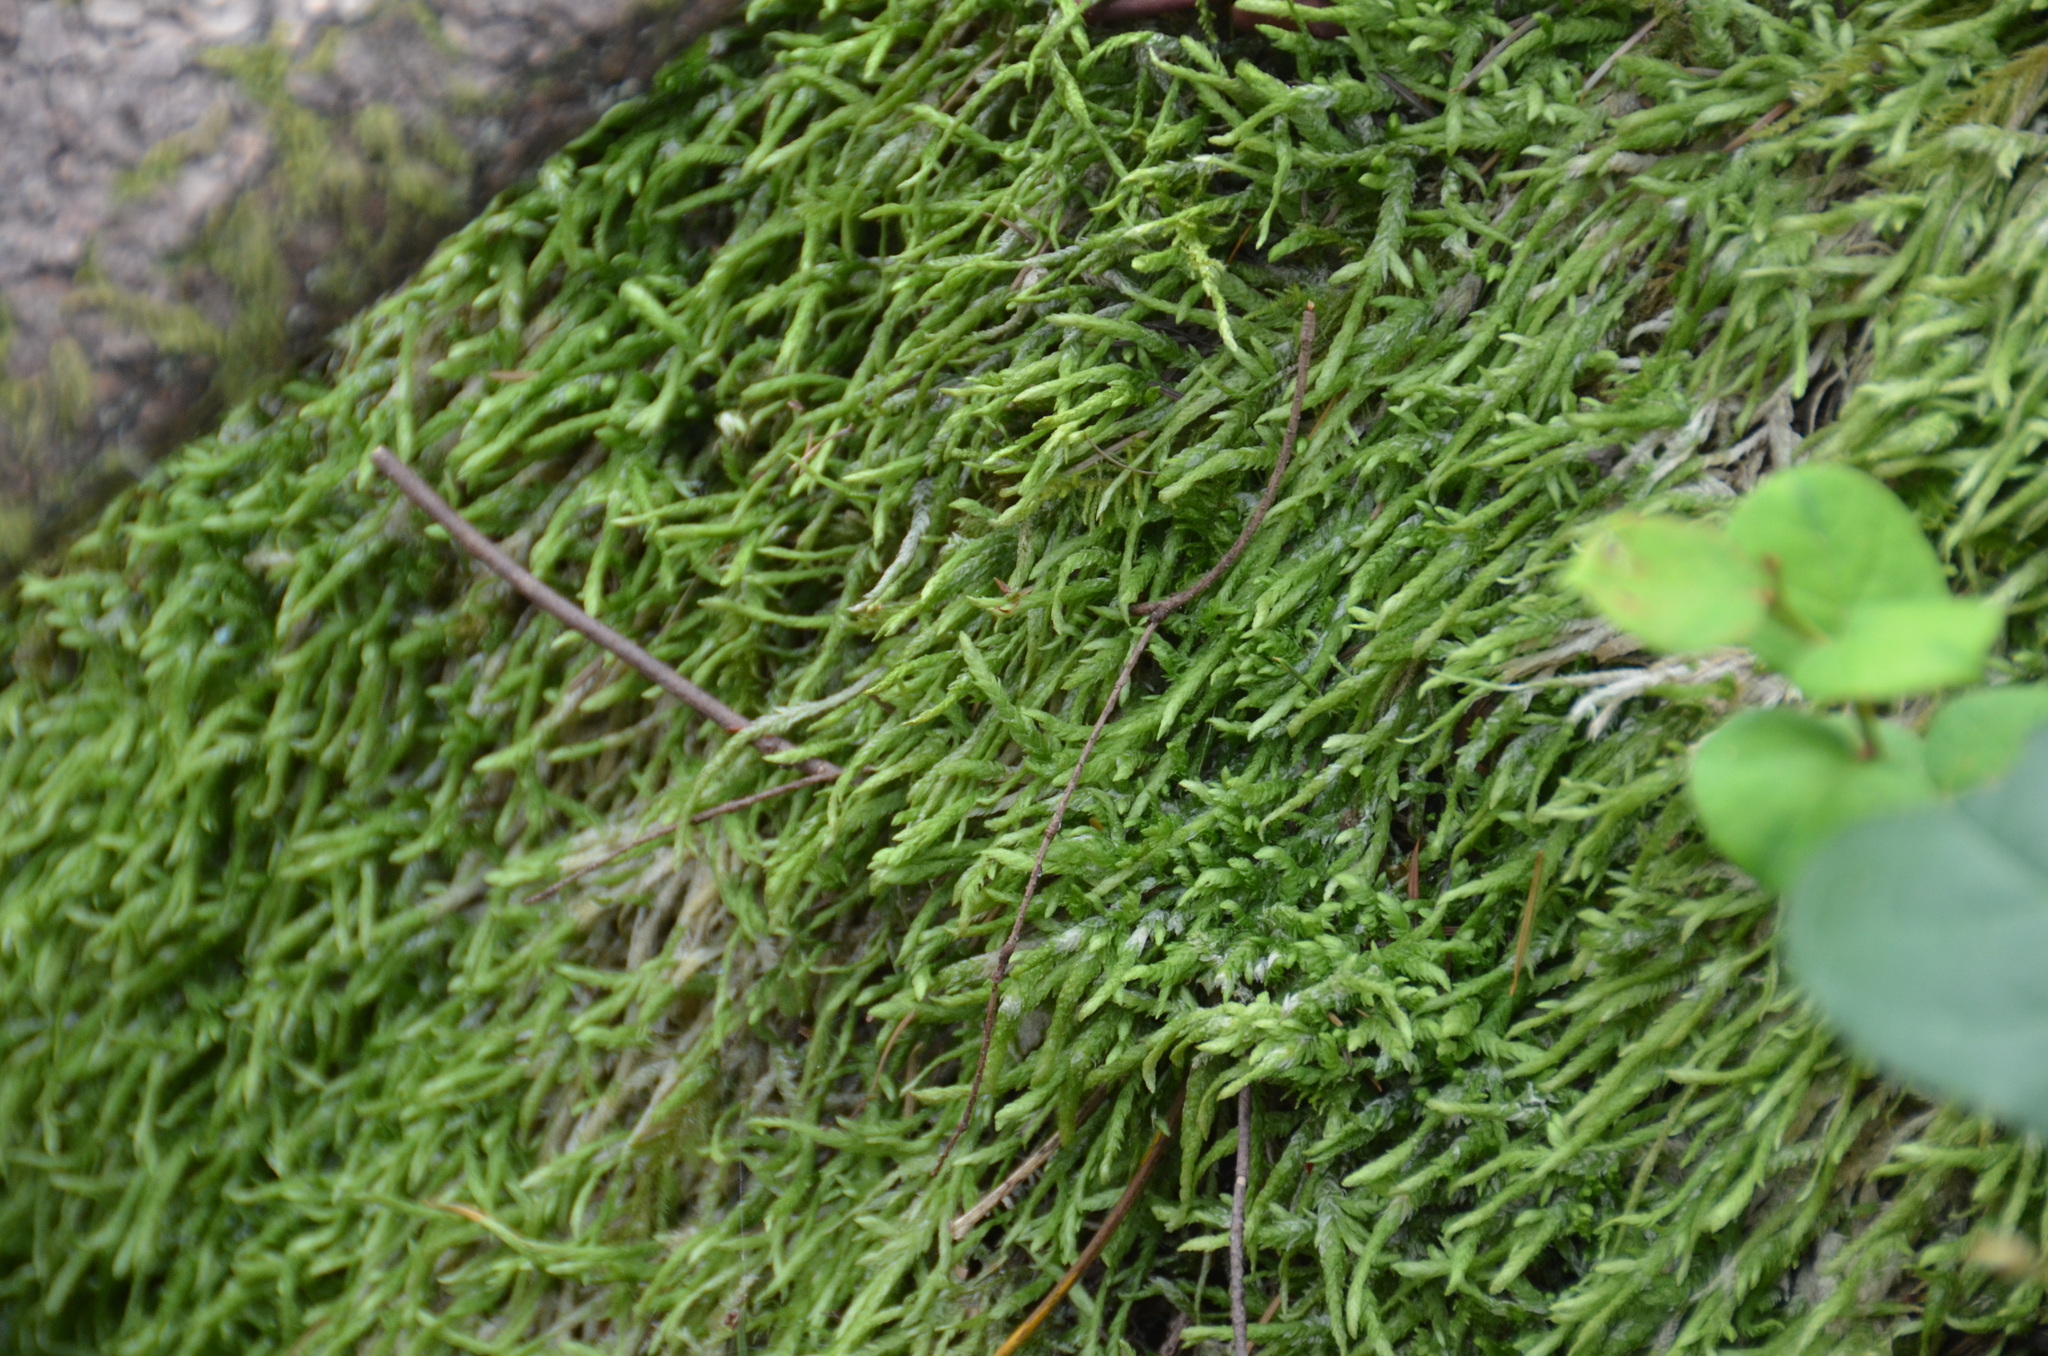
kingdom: Plantae
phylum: Bryophyta
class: Bryopsida
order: Hypnales
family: Plagiotheciaceae
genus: Plagiothecium
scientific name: Plagiothecium undulatum
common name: Waved silk-moss
